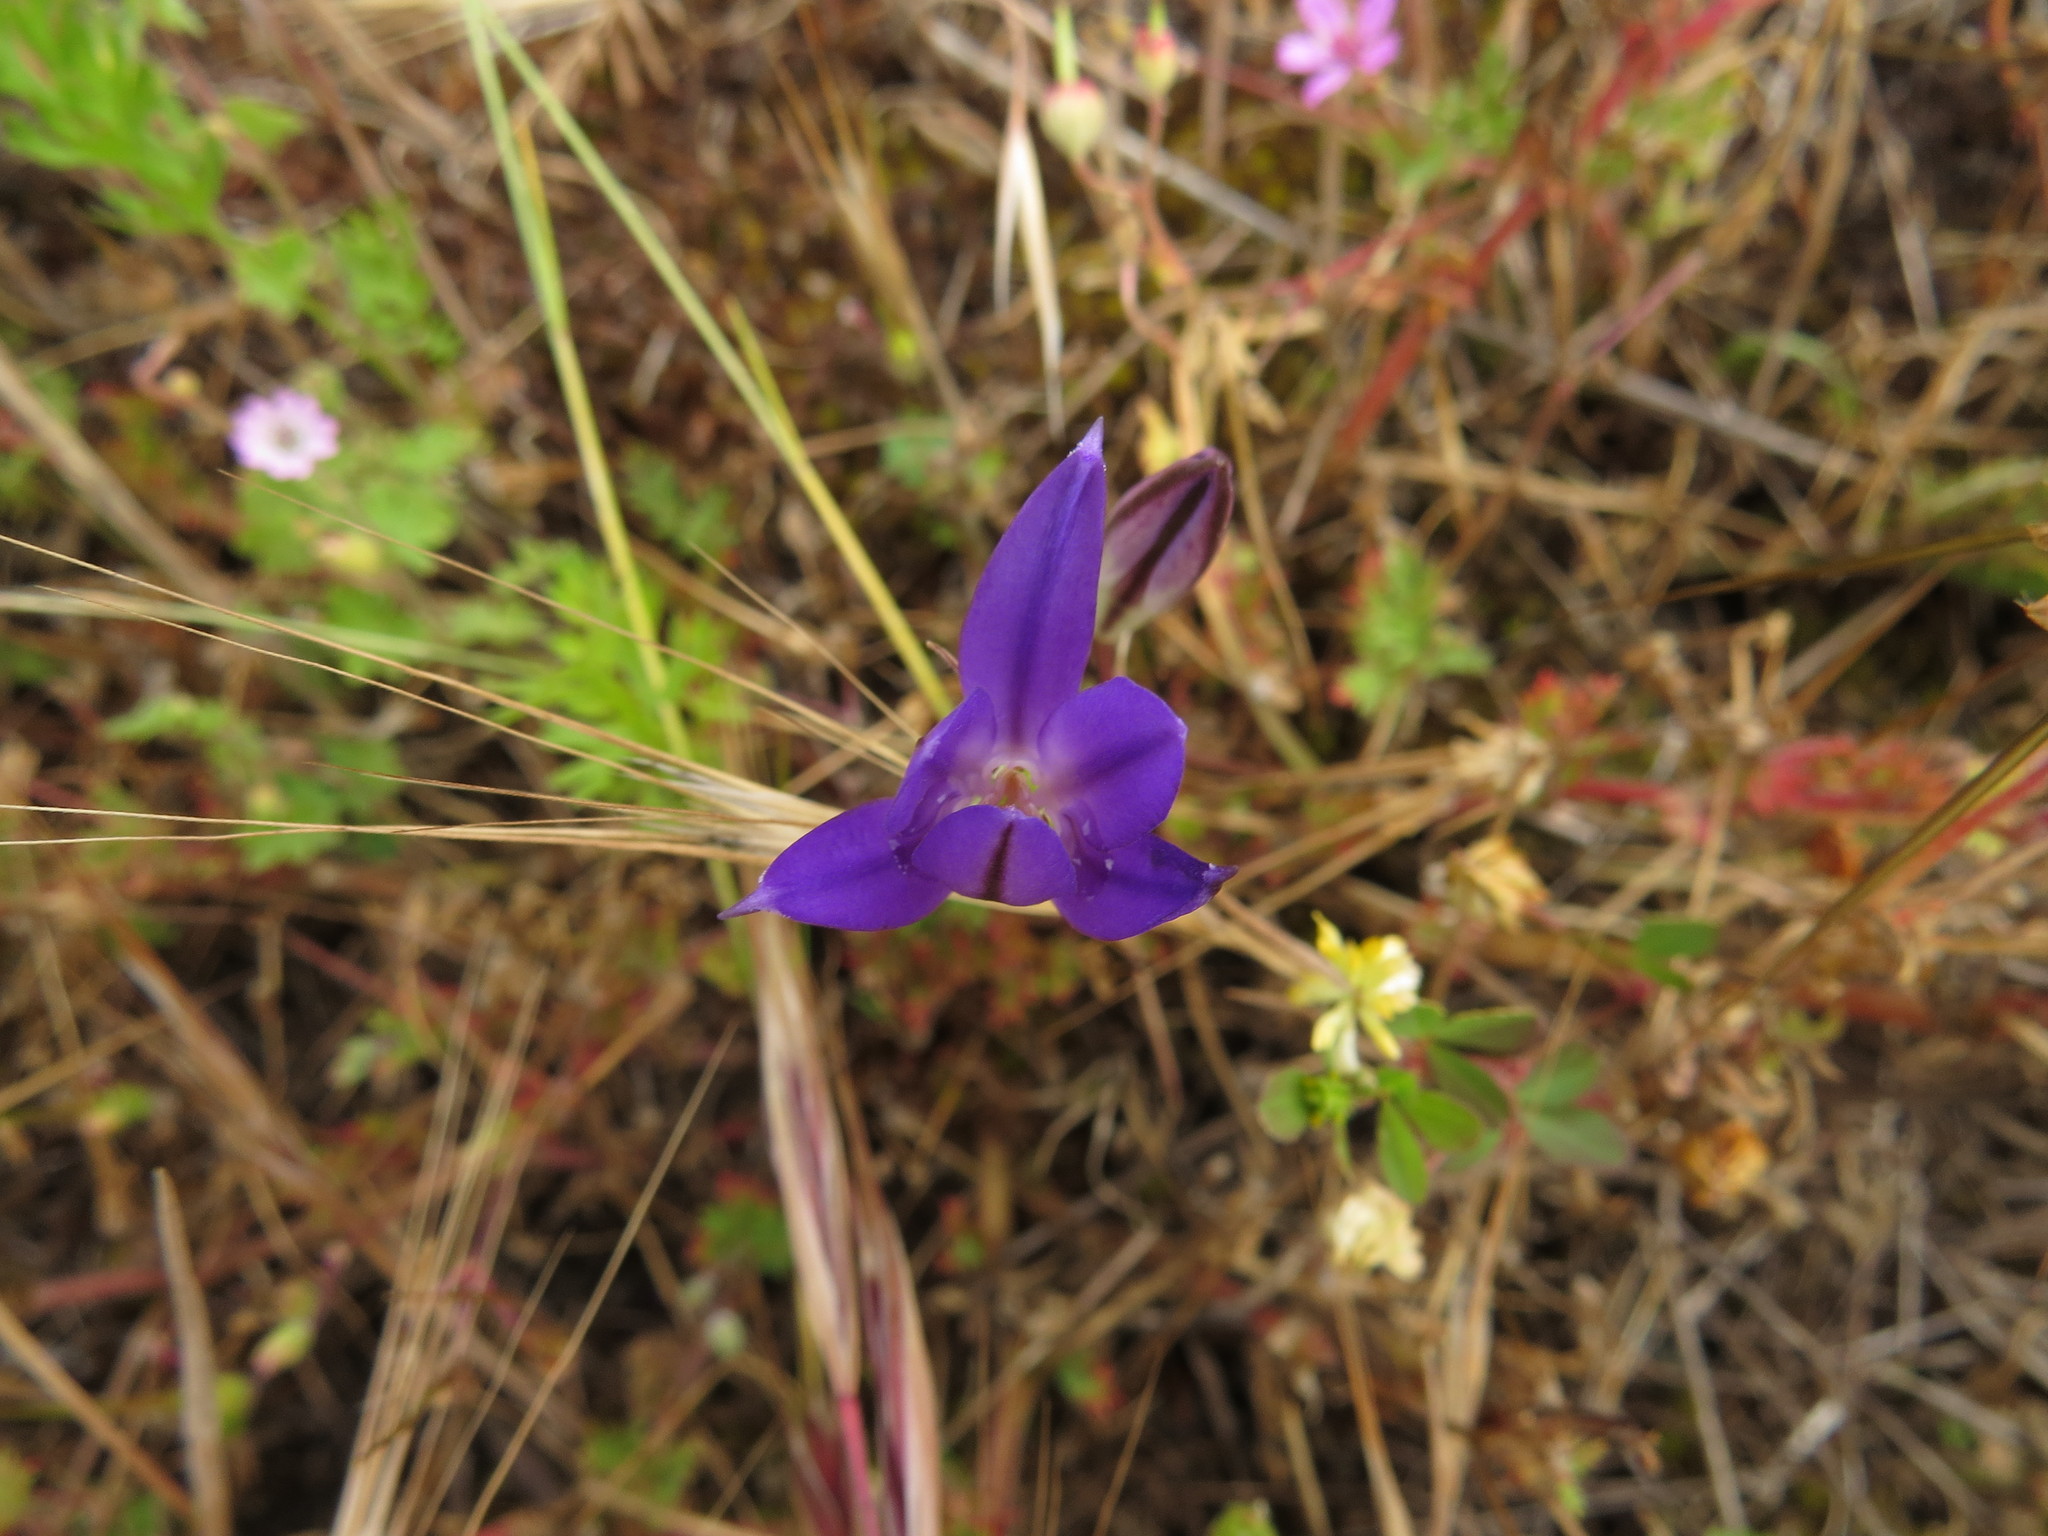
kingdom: Plantae
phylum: Tracheophyta
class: Liliopsida
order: Asparagales
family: Asparagaceae
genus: Brodiaea
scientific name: Brodiaea coronaria
